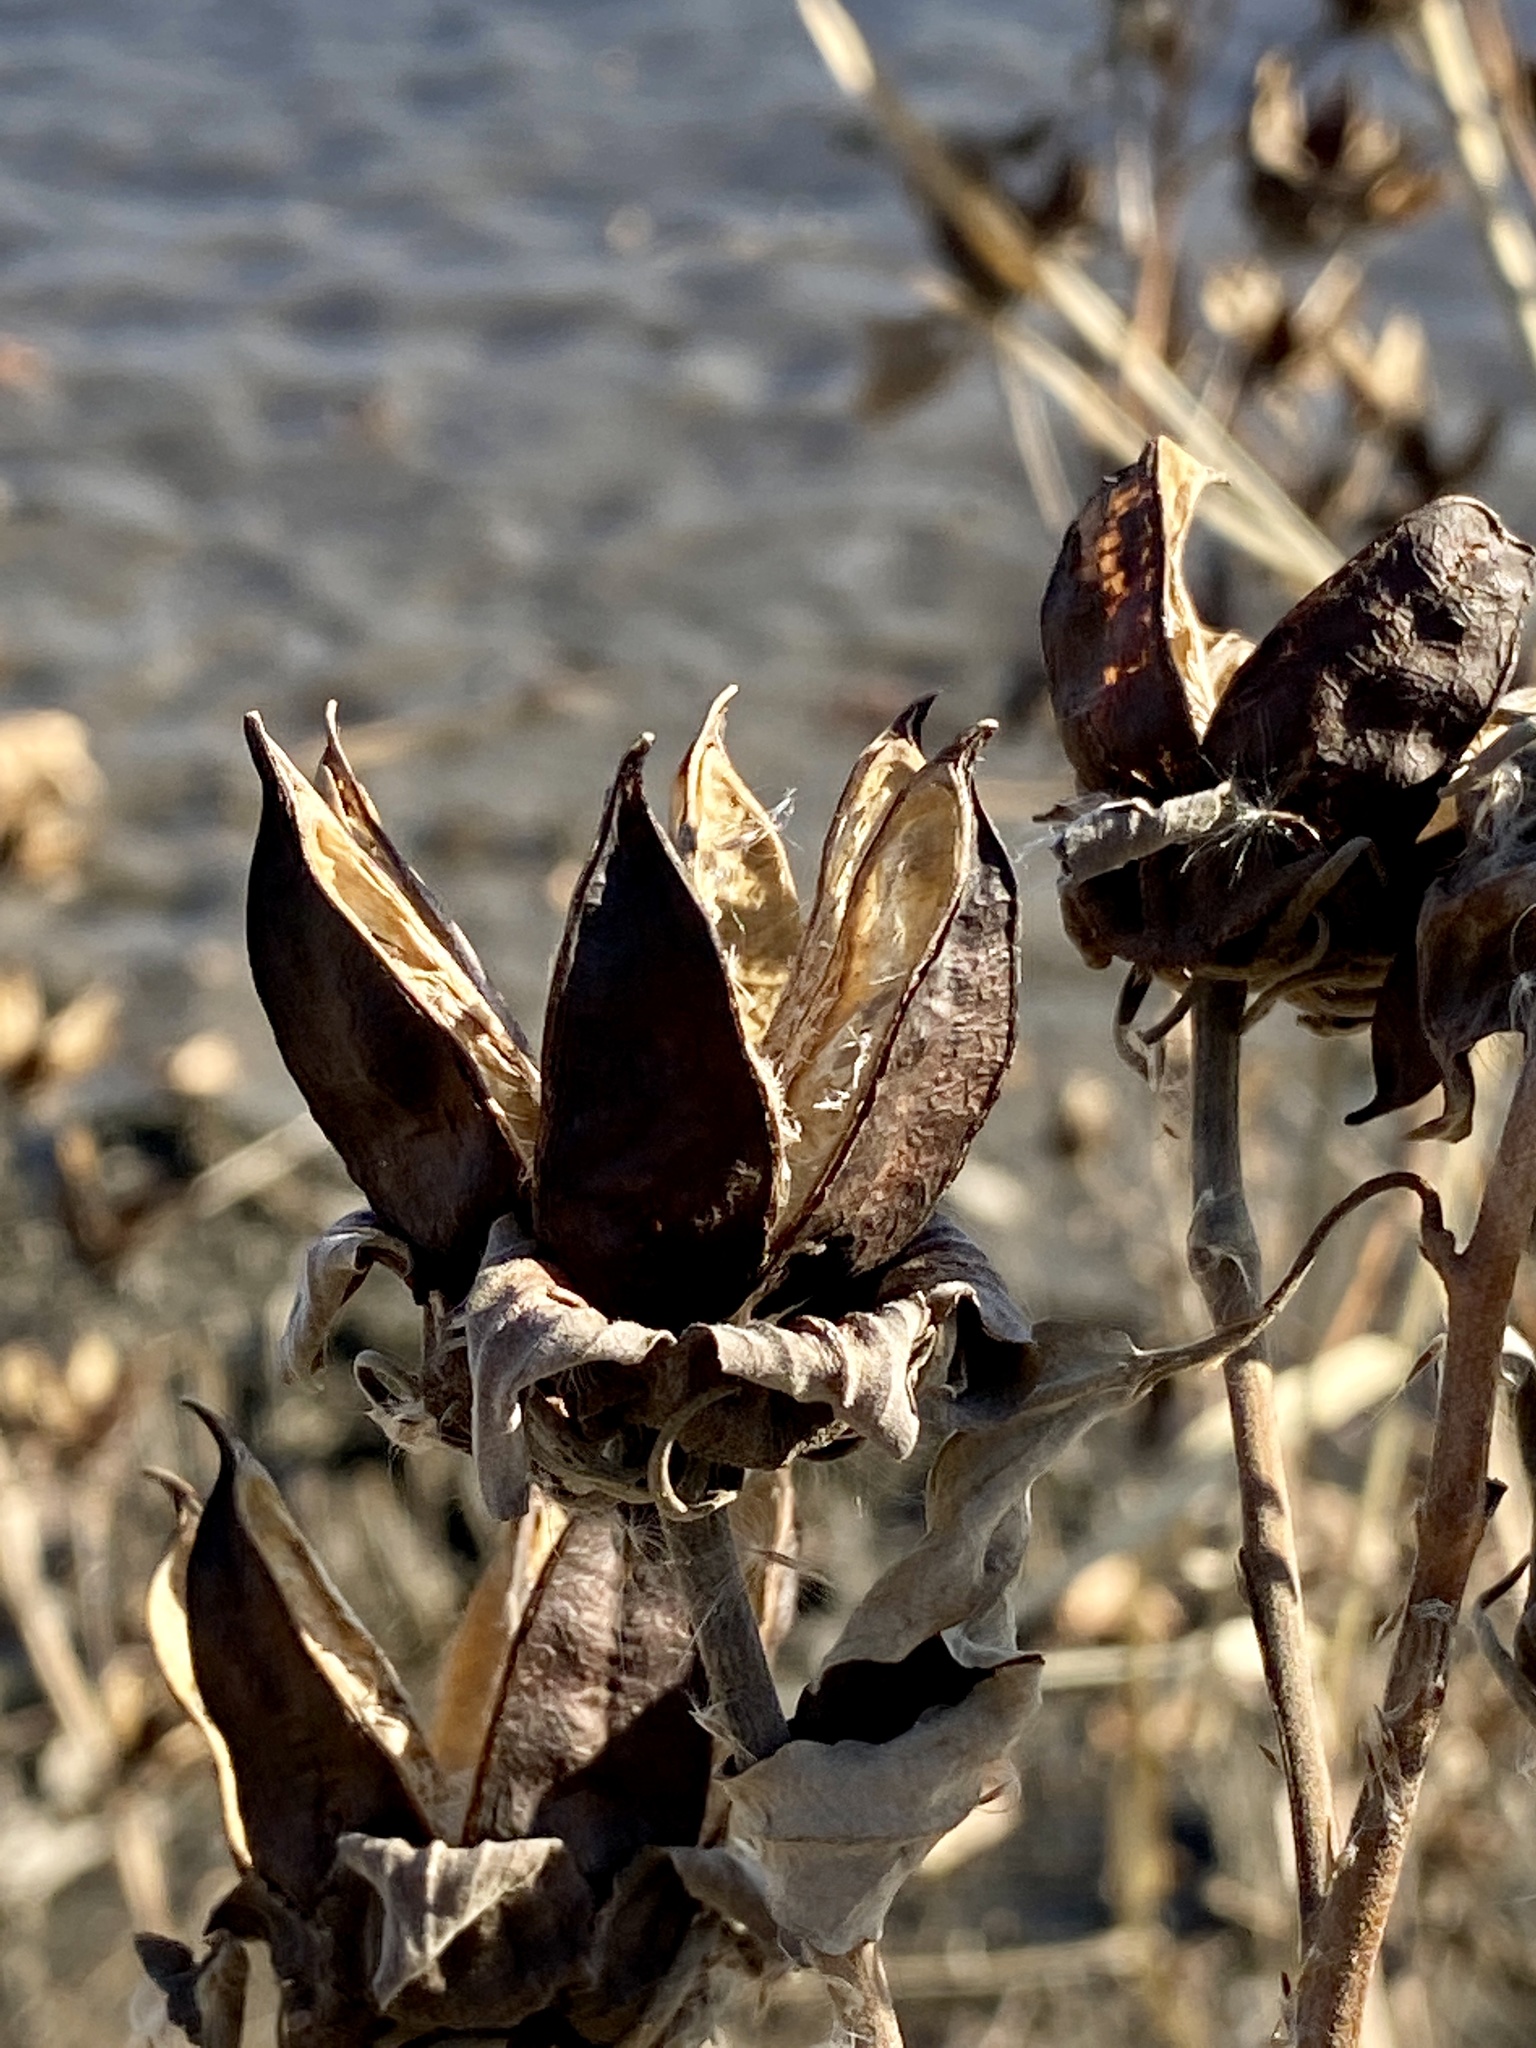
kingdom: Plantae
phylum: Tracheophyta
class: Magnoliopsida
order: Malvales
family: Malvaceae
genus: Hibiscus
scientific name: Hibiscus moscheutos
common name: Common rose-mallow
